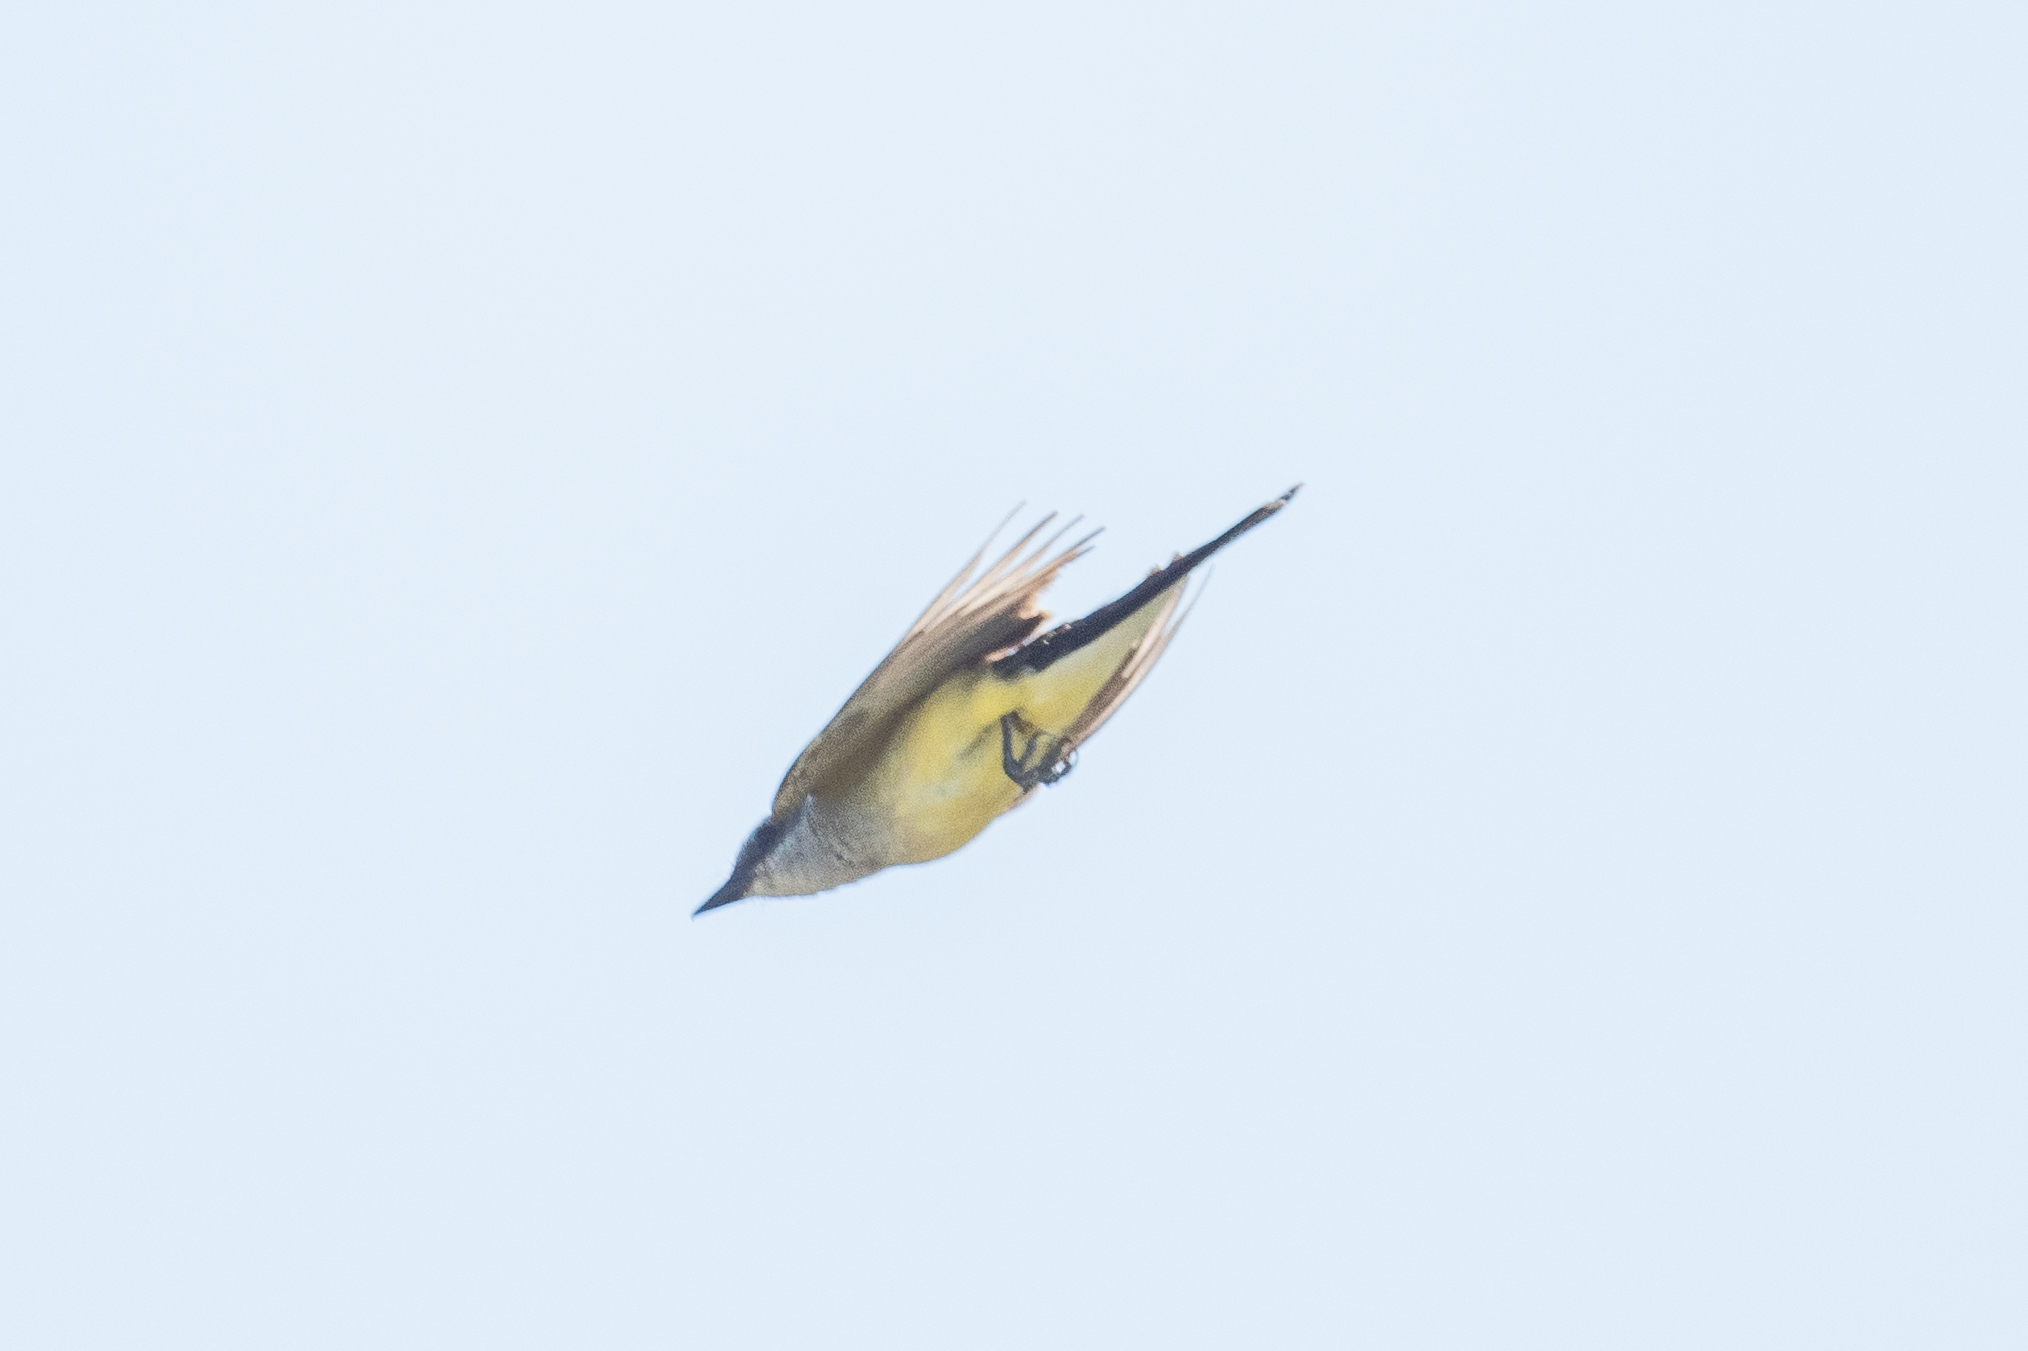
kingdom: Animalia
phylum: Chordata
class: Aves
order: Passeriformes
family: Tyrannidae
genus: Tyrannus
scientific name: Tyrannus verticalis
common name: Western kingbird
